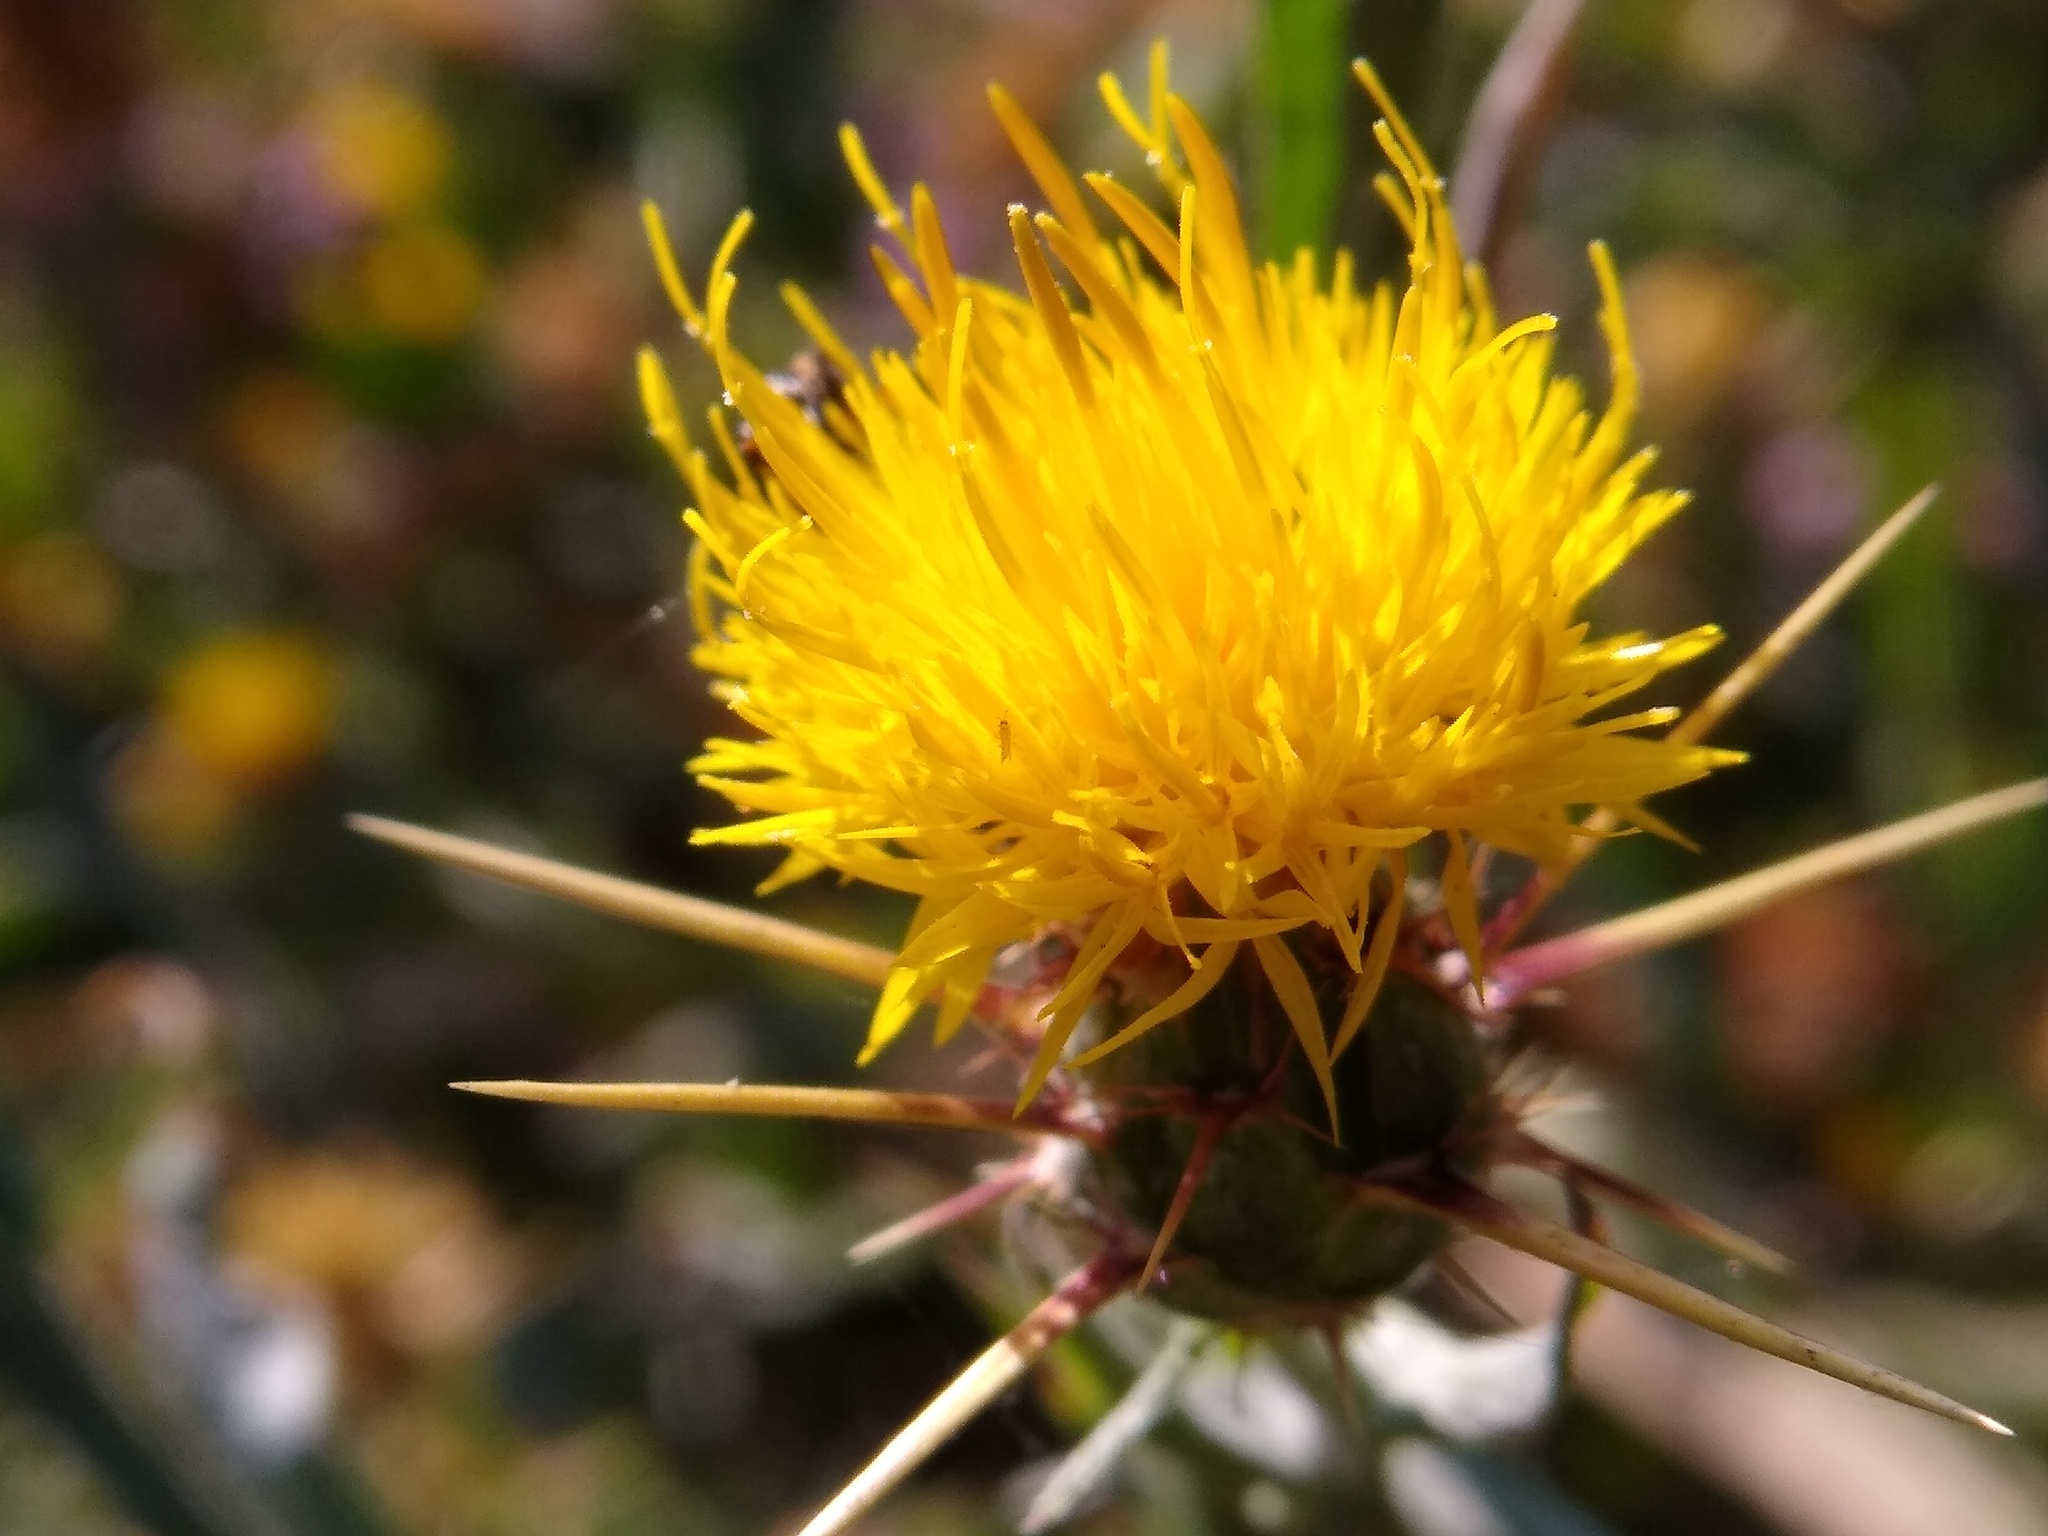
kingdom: Plantae
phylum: Tracheophyta
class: Magnoliopsida
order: Asterales
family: Asteraceae
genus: Centaurea
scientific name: Centaurea solstitialis
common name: Yellow star-thistle
